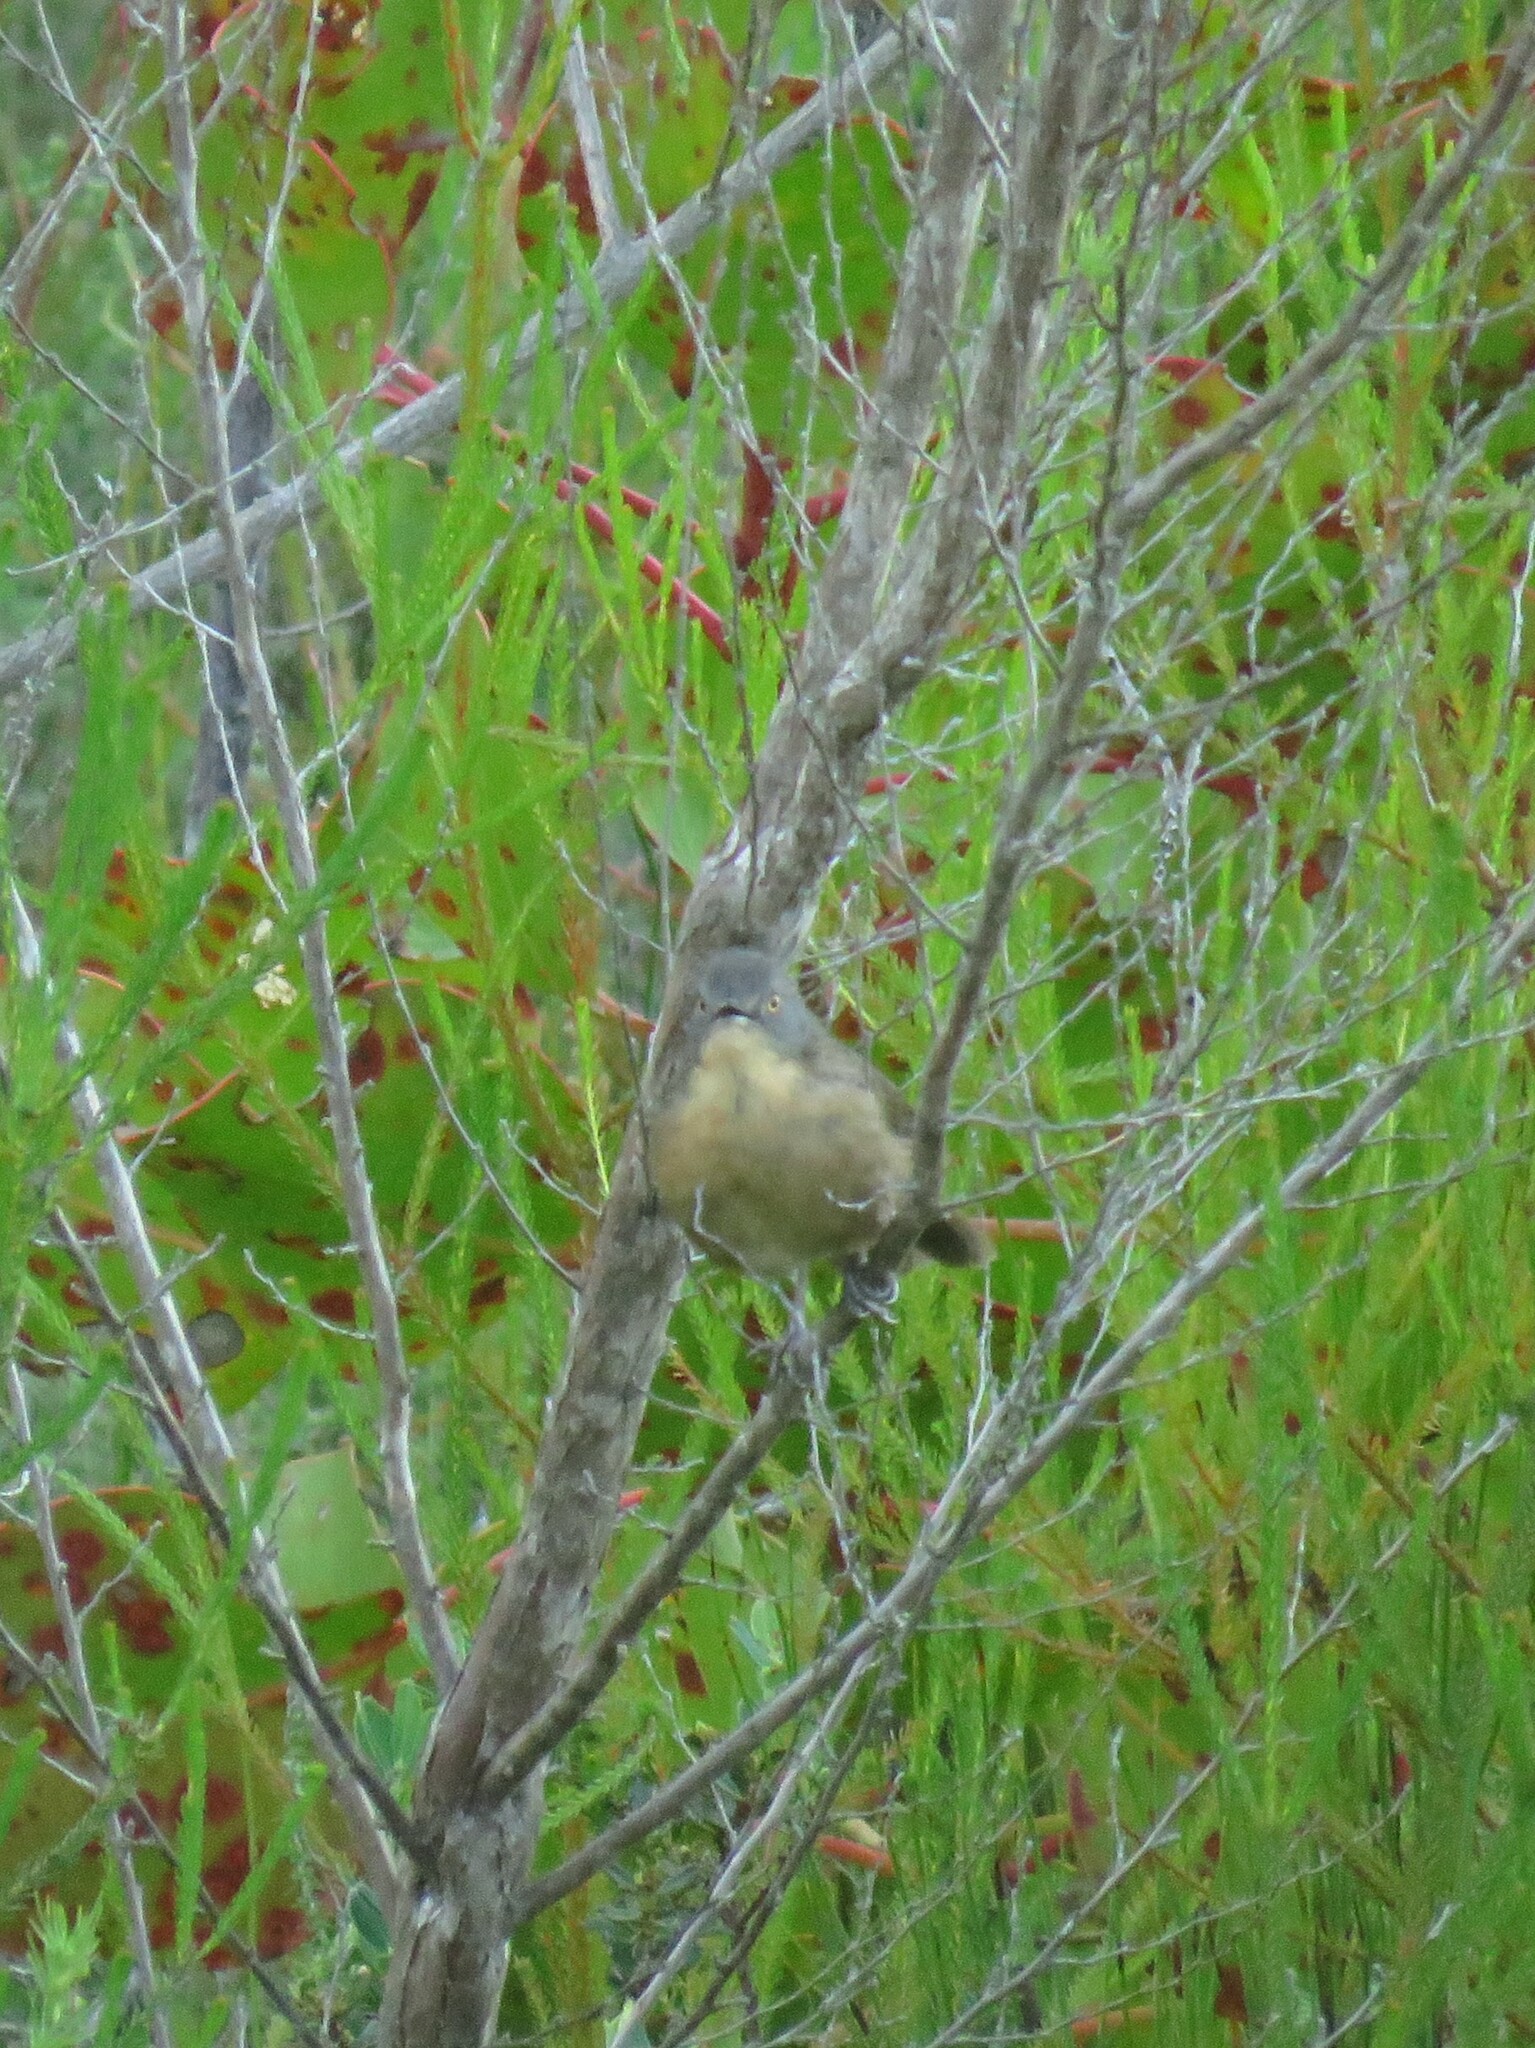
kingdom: Animalia
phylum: Chordata
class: Aves
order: Passeriformes
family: Macrosphenidae
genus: Cryptillas
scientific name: Cryptillas victorini
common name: Victorin's warbler
